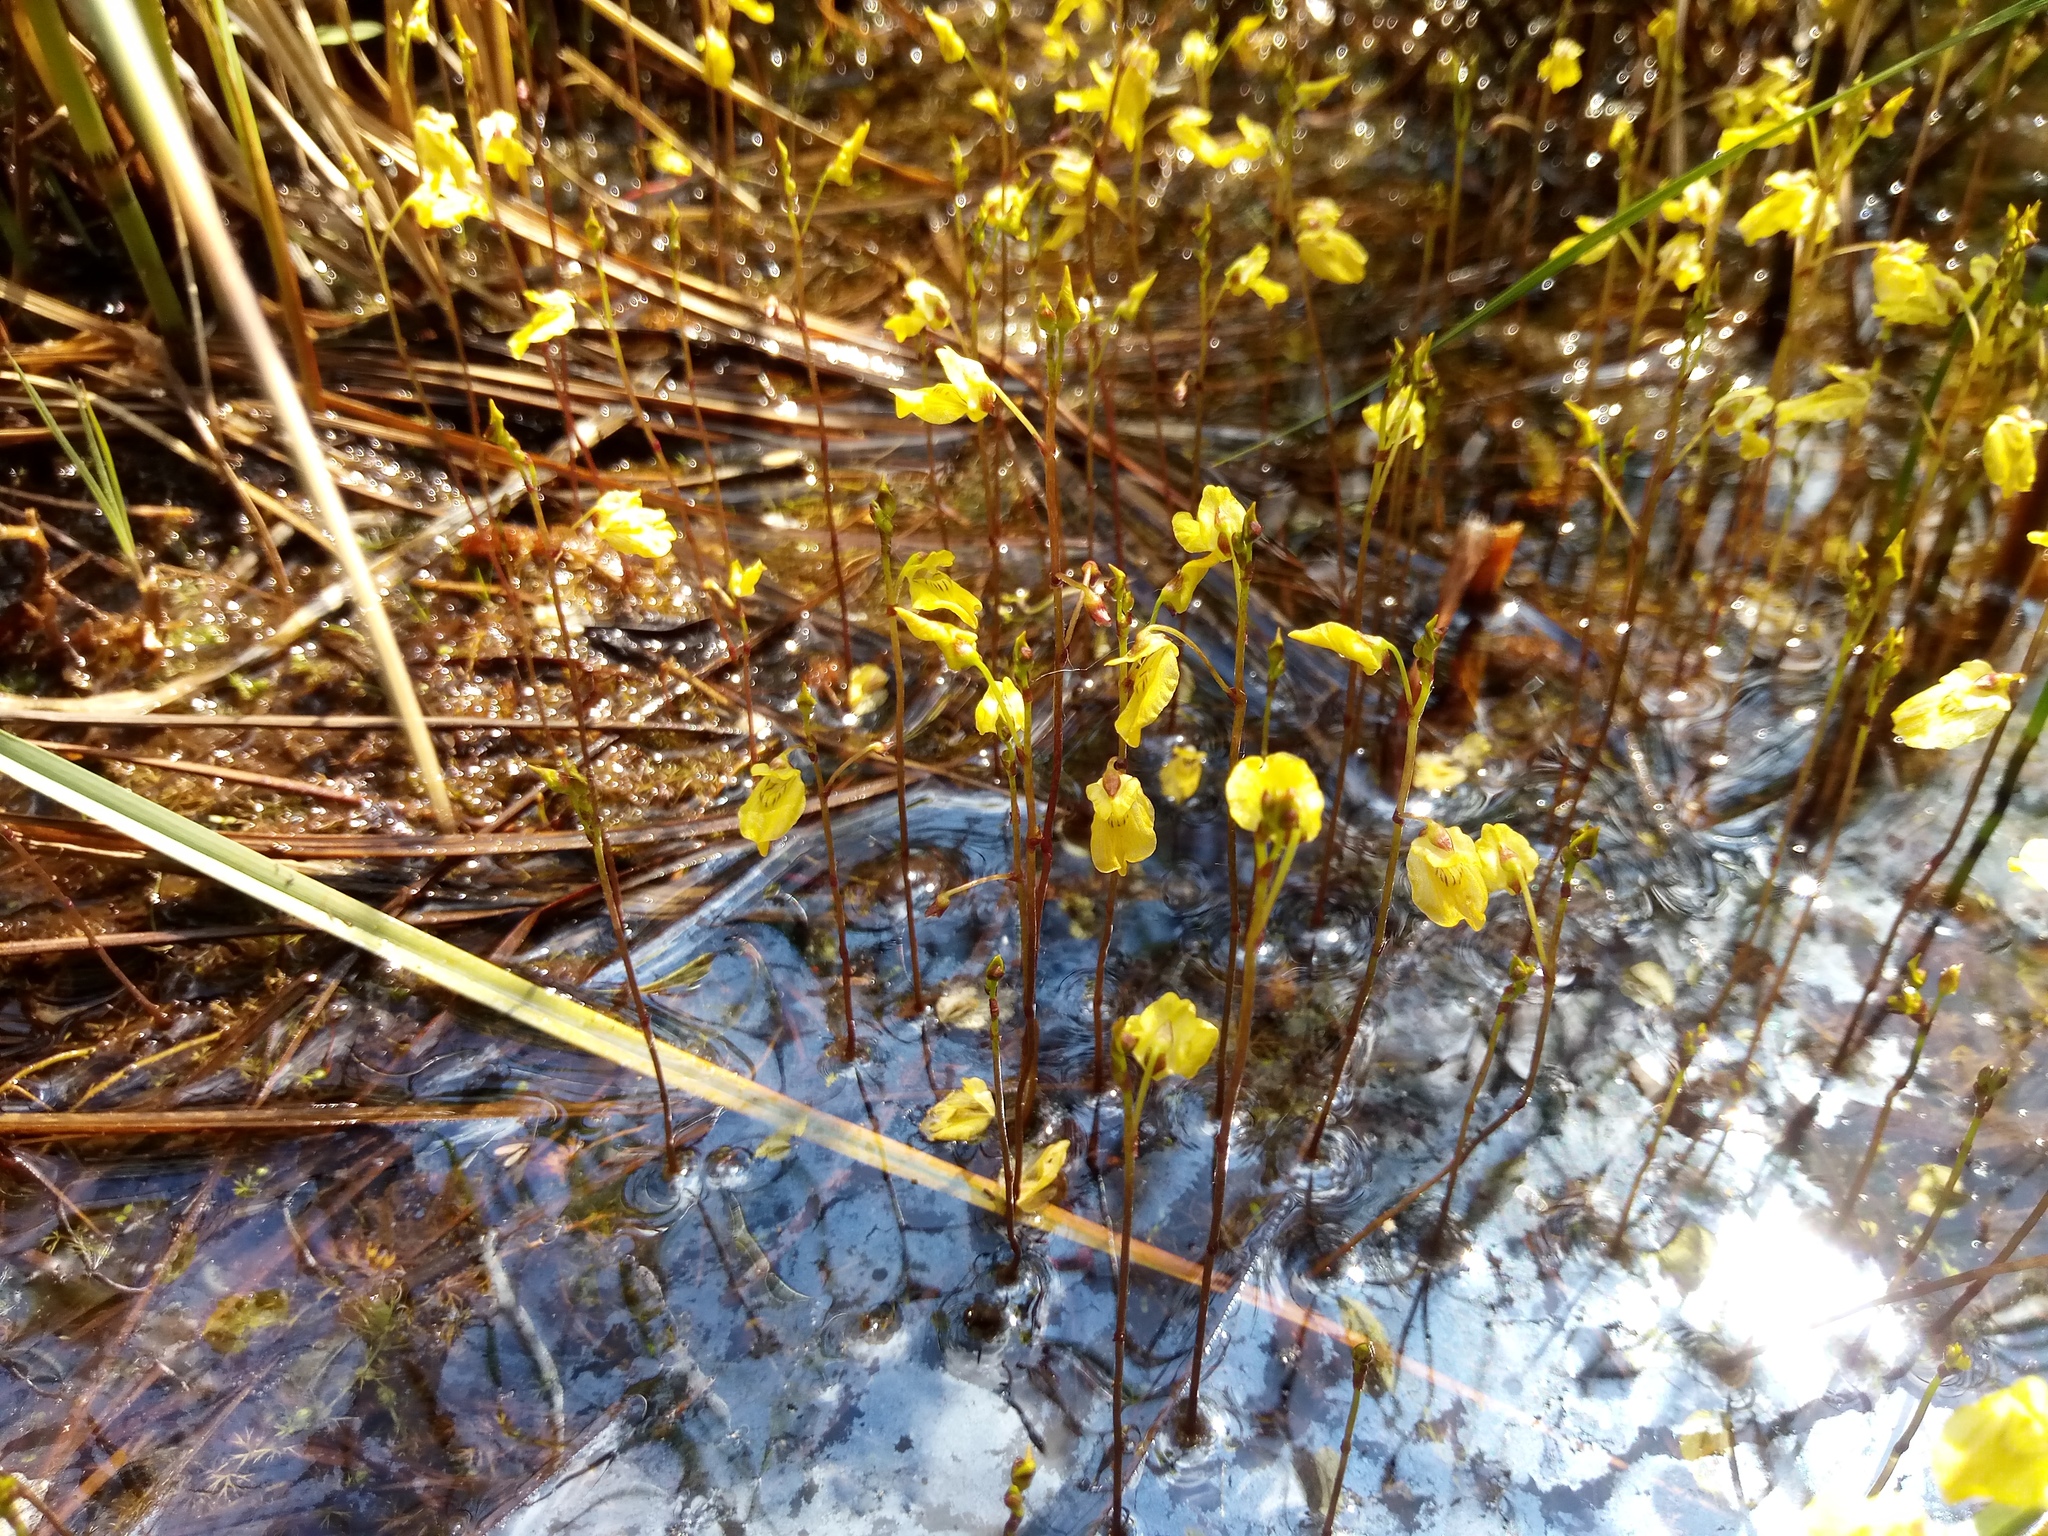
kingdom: Plantae
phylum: Tracheophyta
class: Magnoliopsida
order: Lamiales
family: Lentibulariaceae
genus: Utricularia
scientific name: Utricularia minor
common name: Lesser bladderwort
